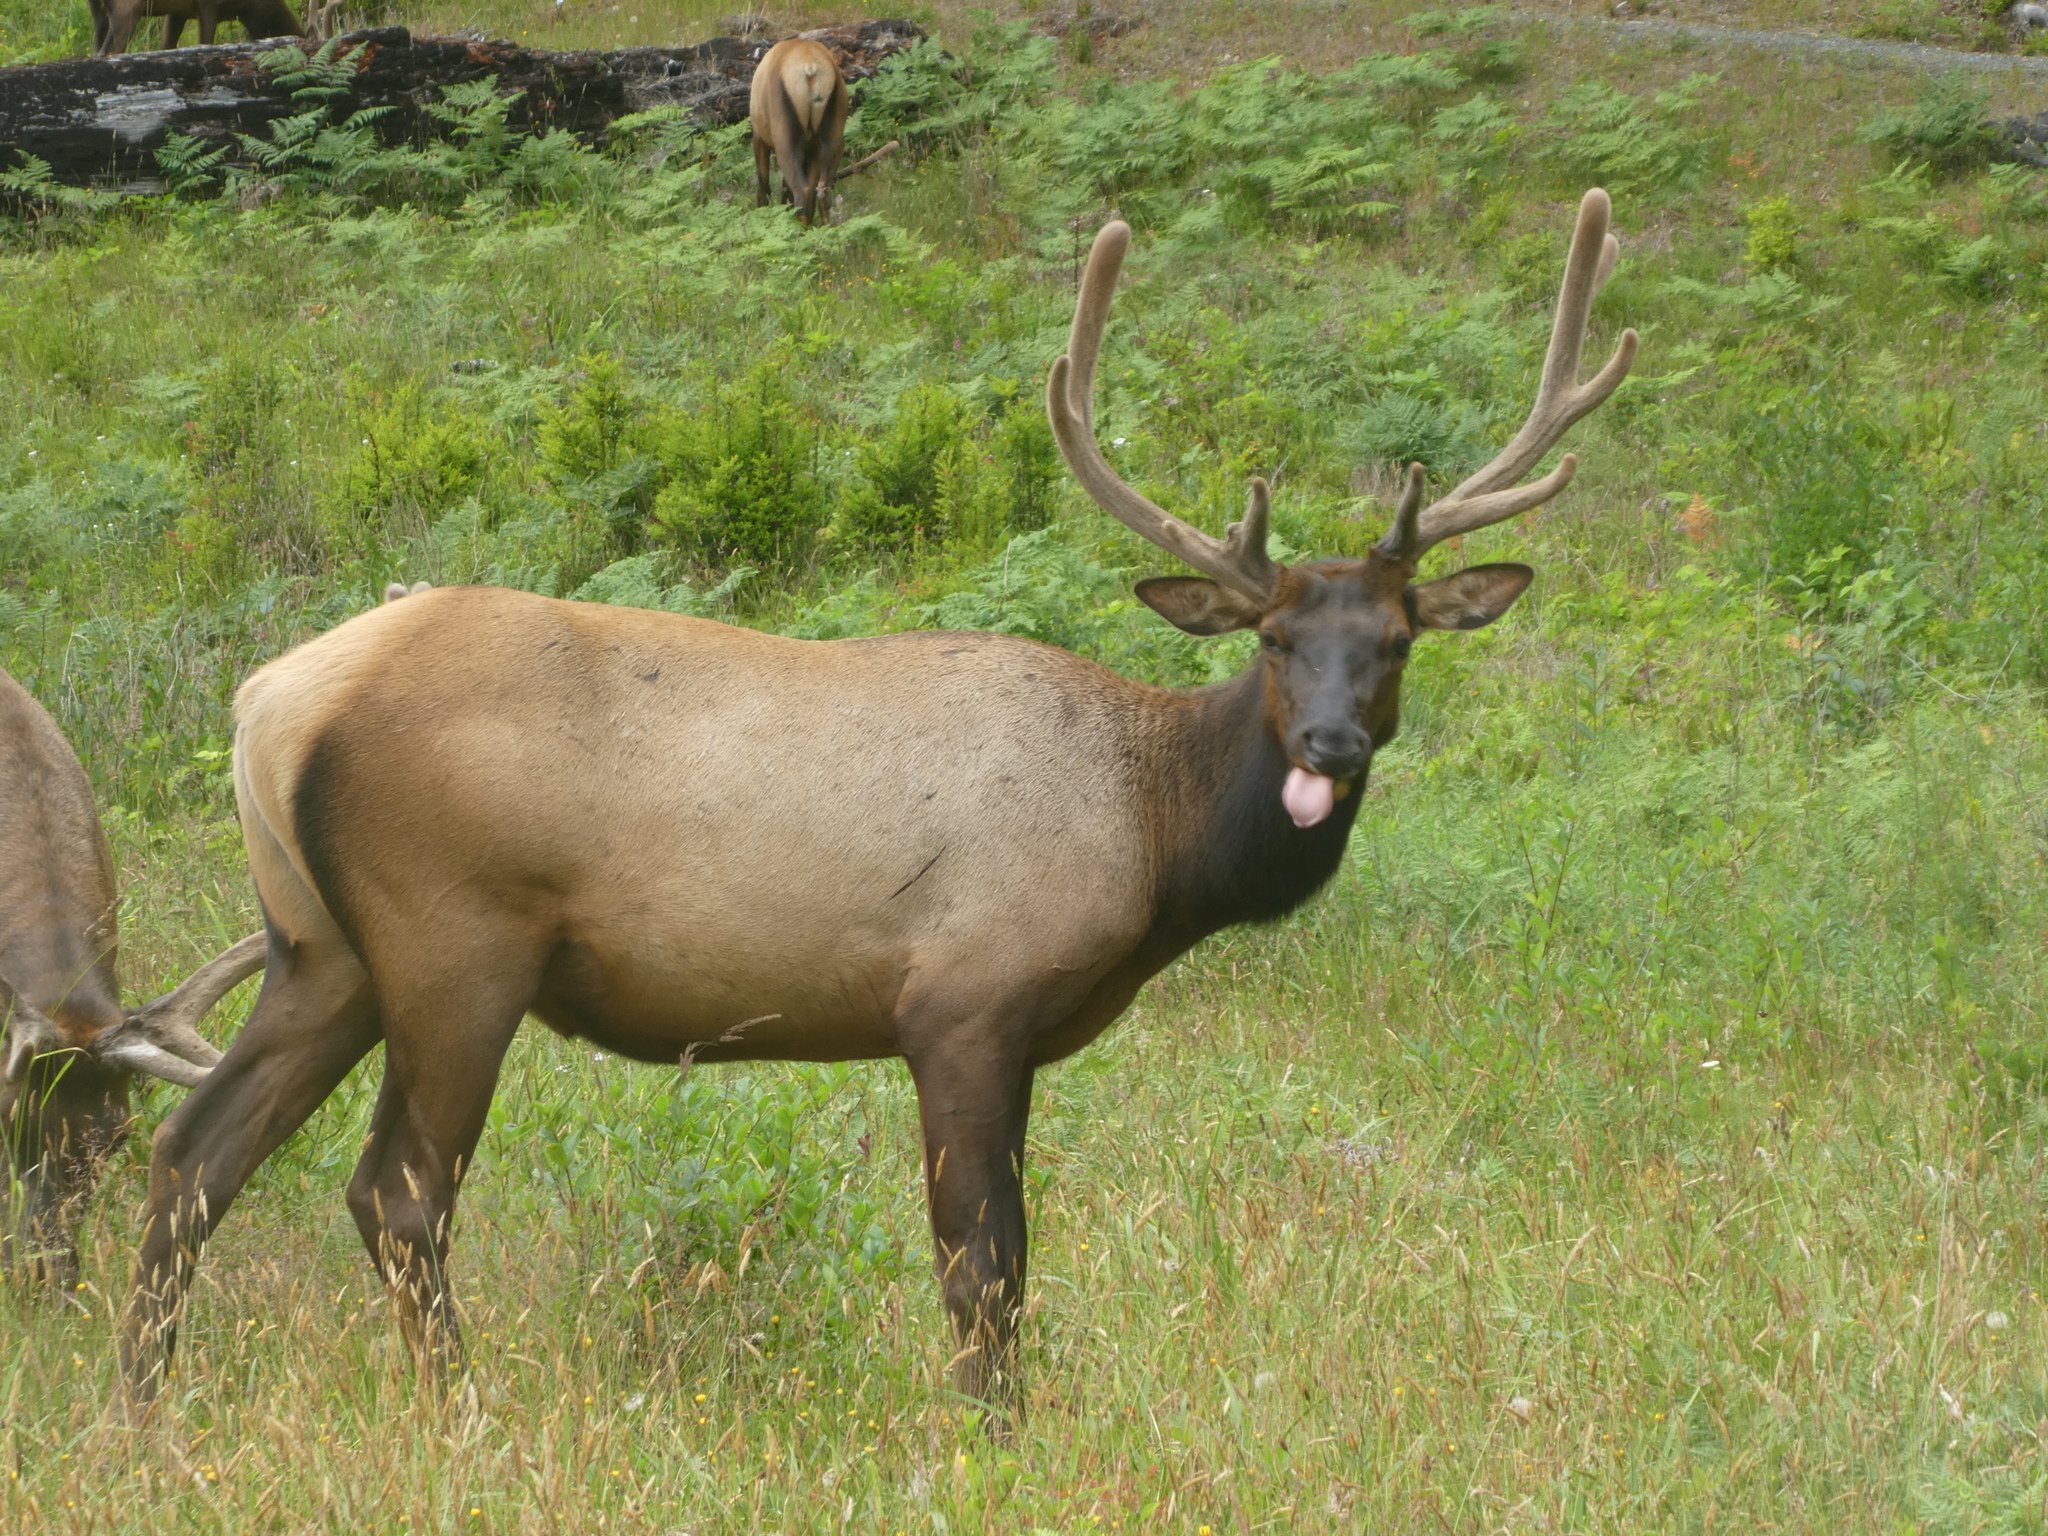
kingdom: Animalia
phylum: Chordata
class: Mammalia
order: Artiodactyla
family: Cervidae
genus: Cervus
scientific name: Cervus elaphus
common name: Red deer
